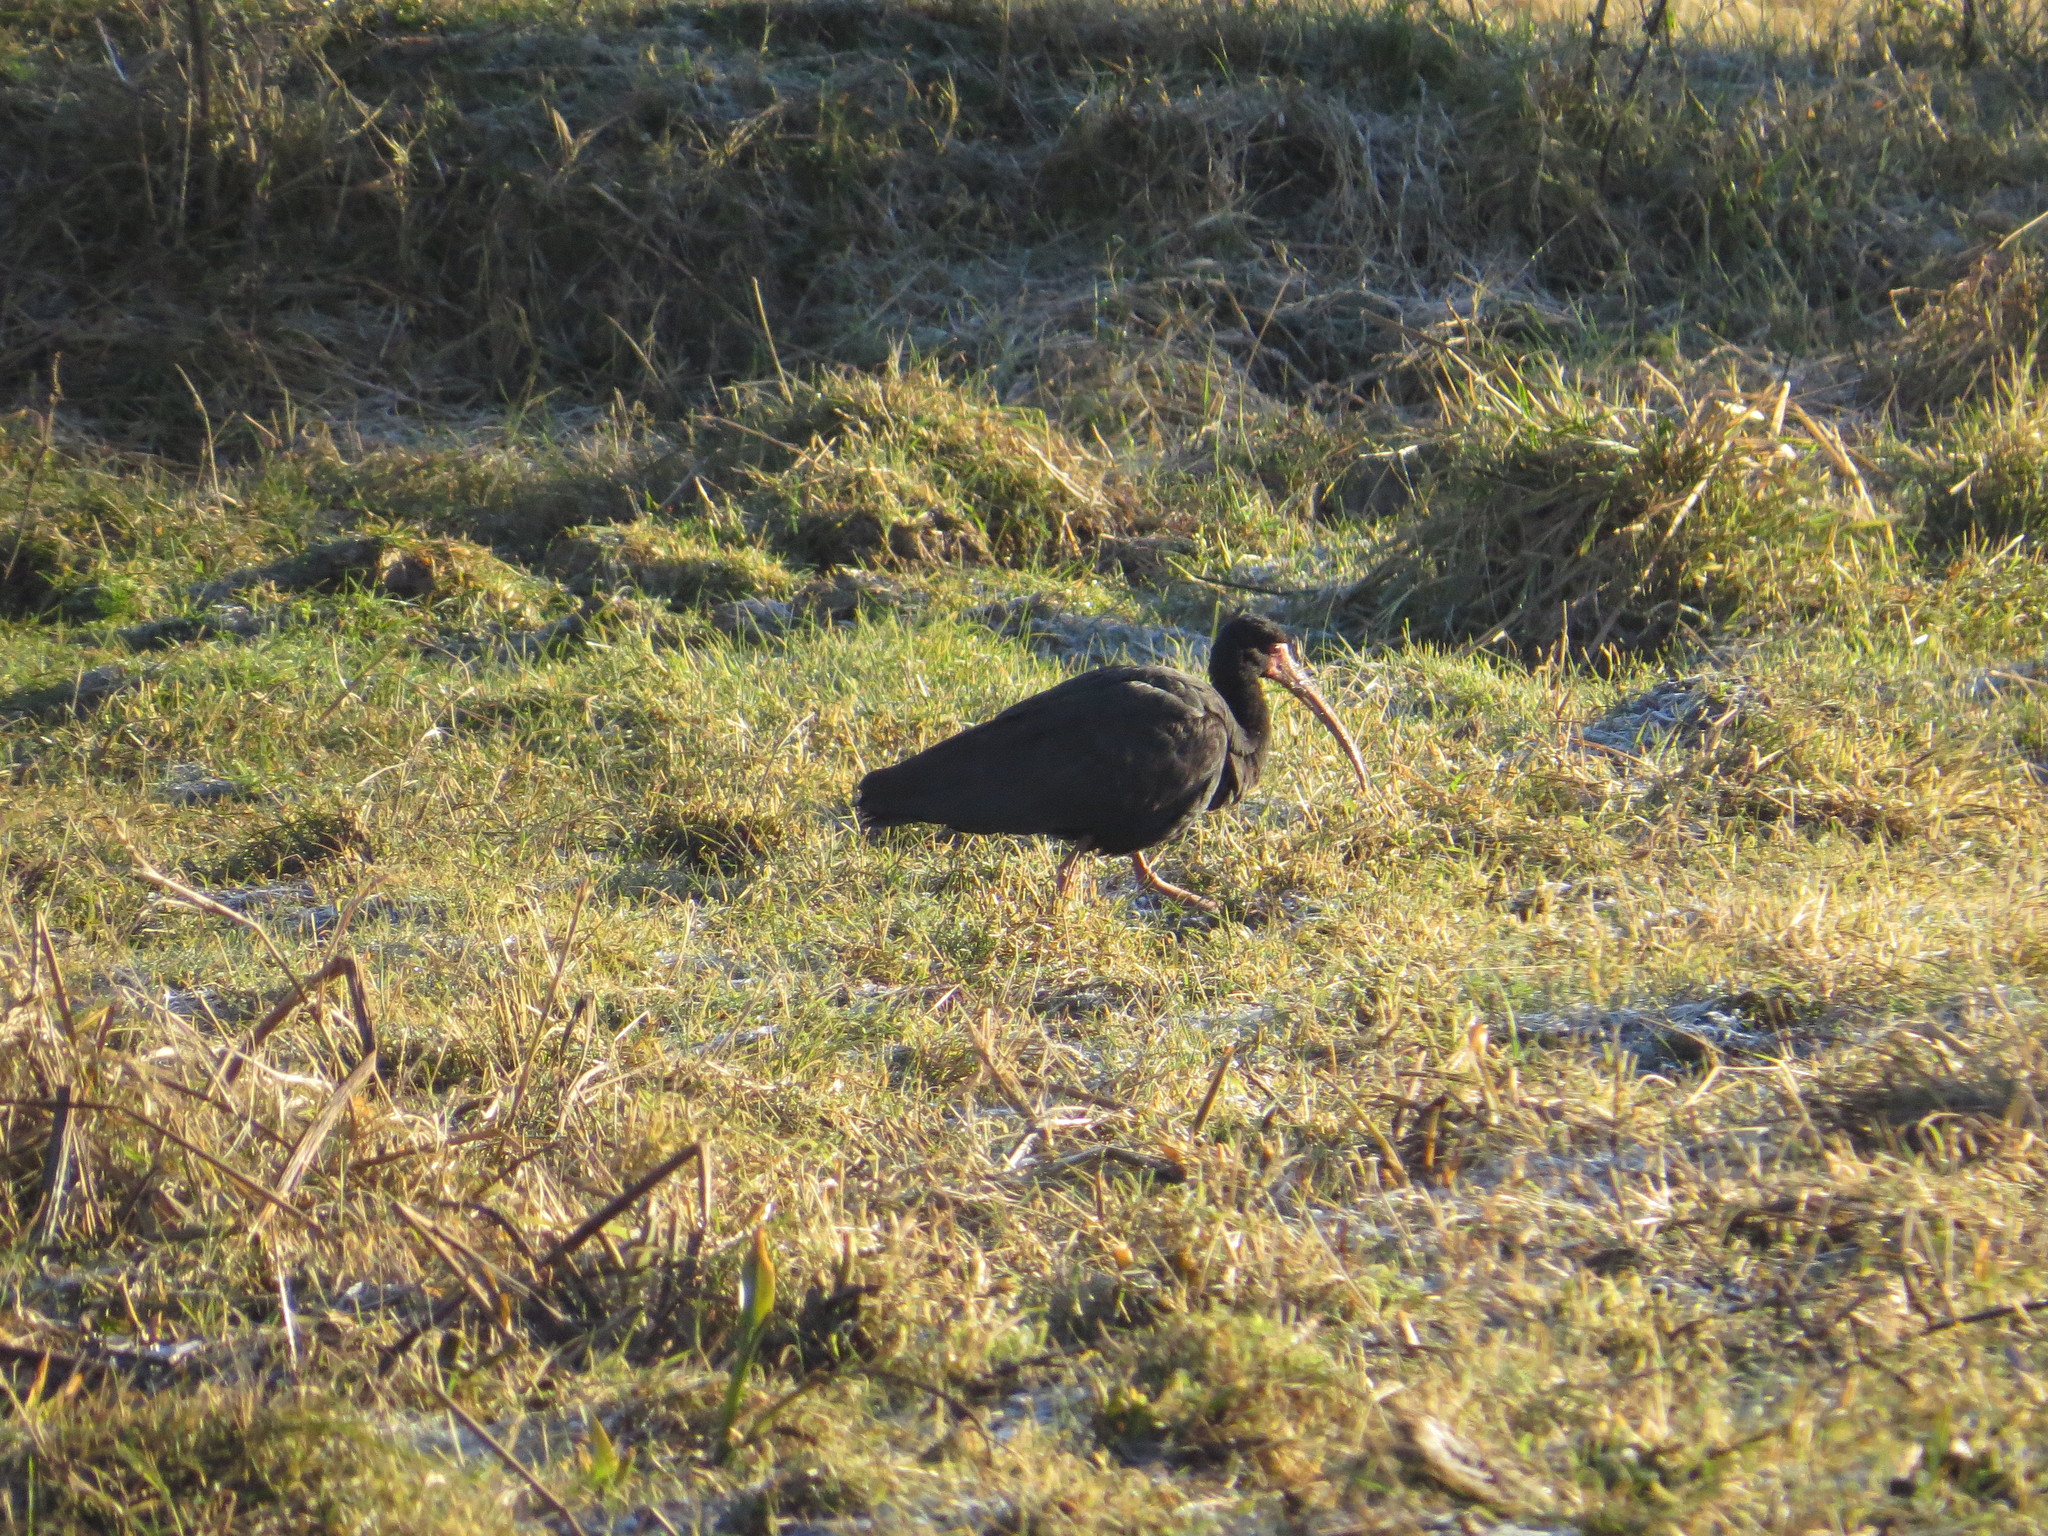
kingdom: Animalia
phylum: Chordata
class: Aves
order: Pelecaniformes
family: Threskiornithidae
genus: Phimosus
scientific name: Phimosus infuscatus
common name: Bare-faced ibis
